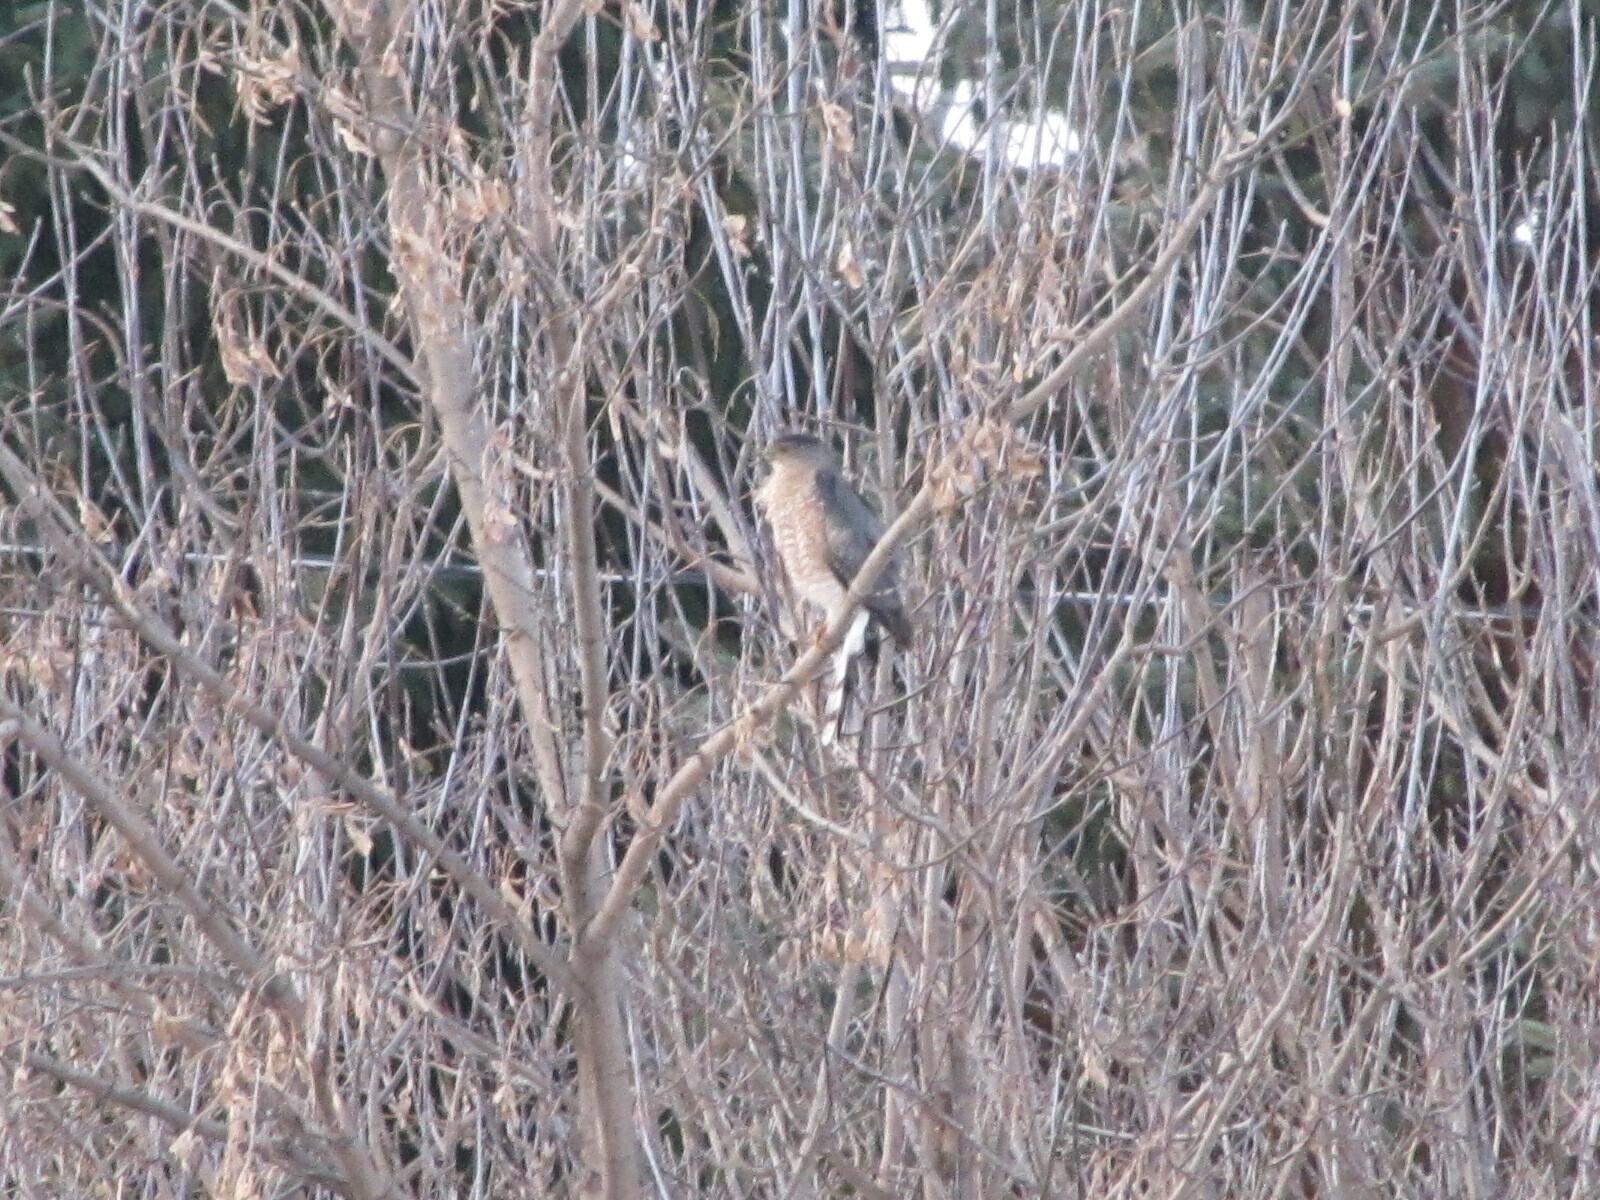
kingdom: Animalia
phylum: Chordata
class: Aves
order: Accipitriformes
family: Accipitridae
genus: Accipiter
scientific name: Accipiter cooperii
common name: Cooper's hawk
